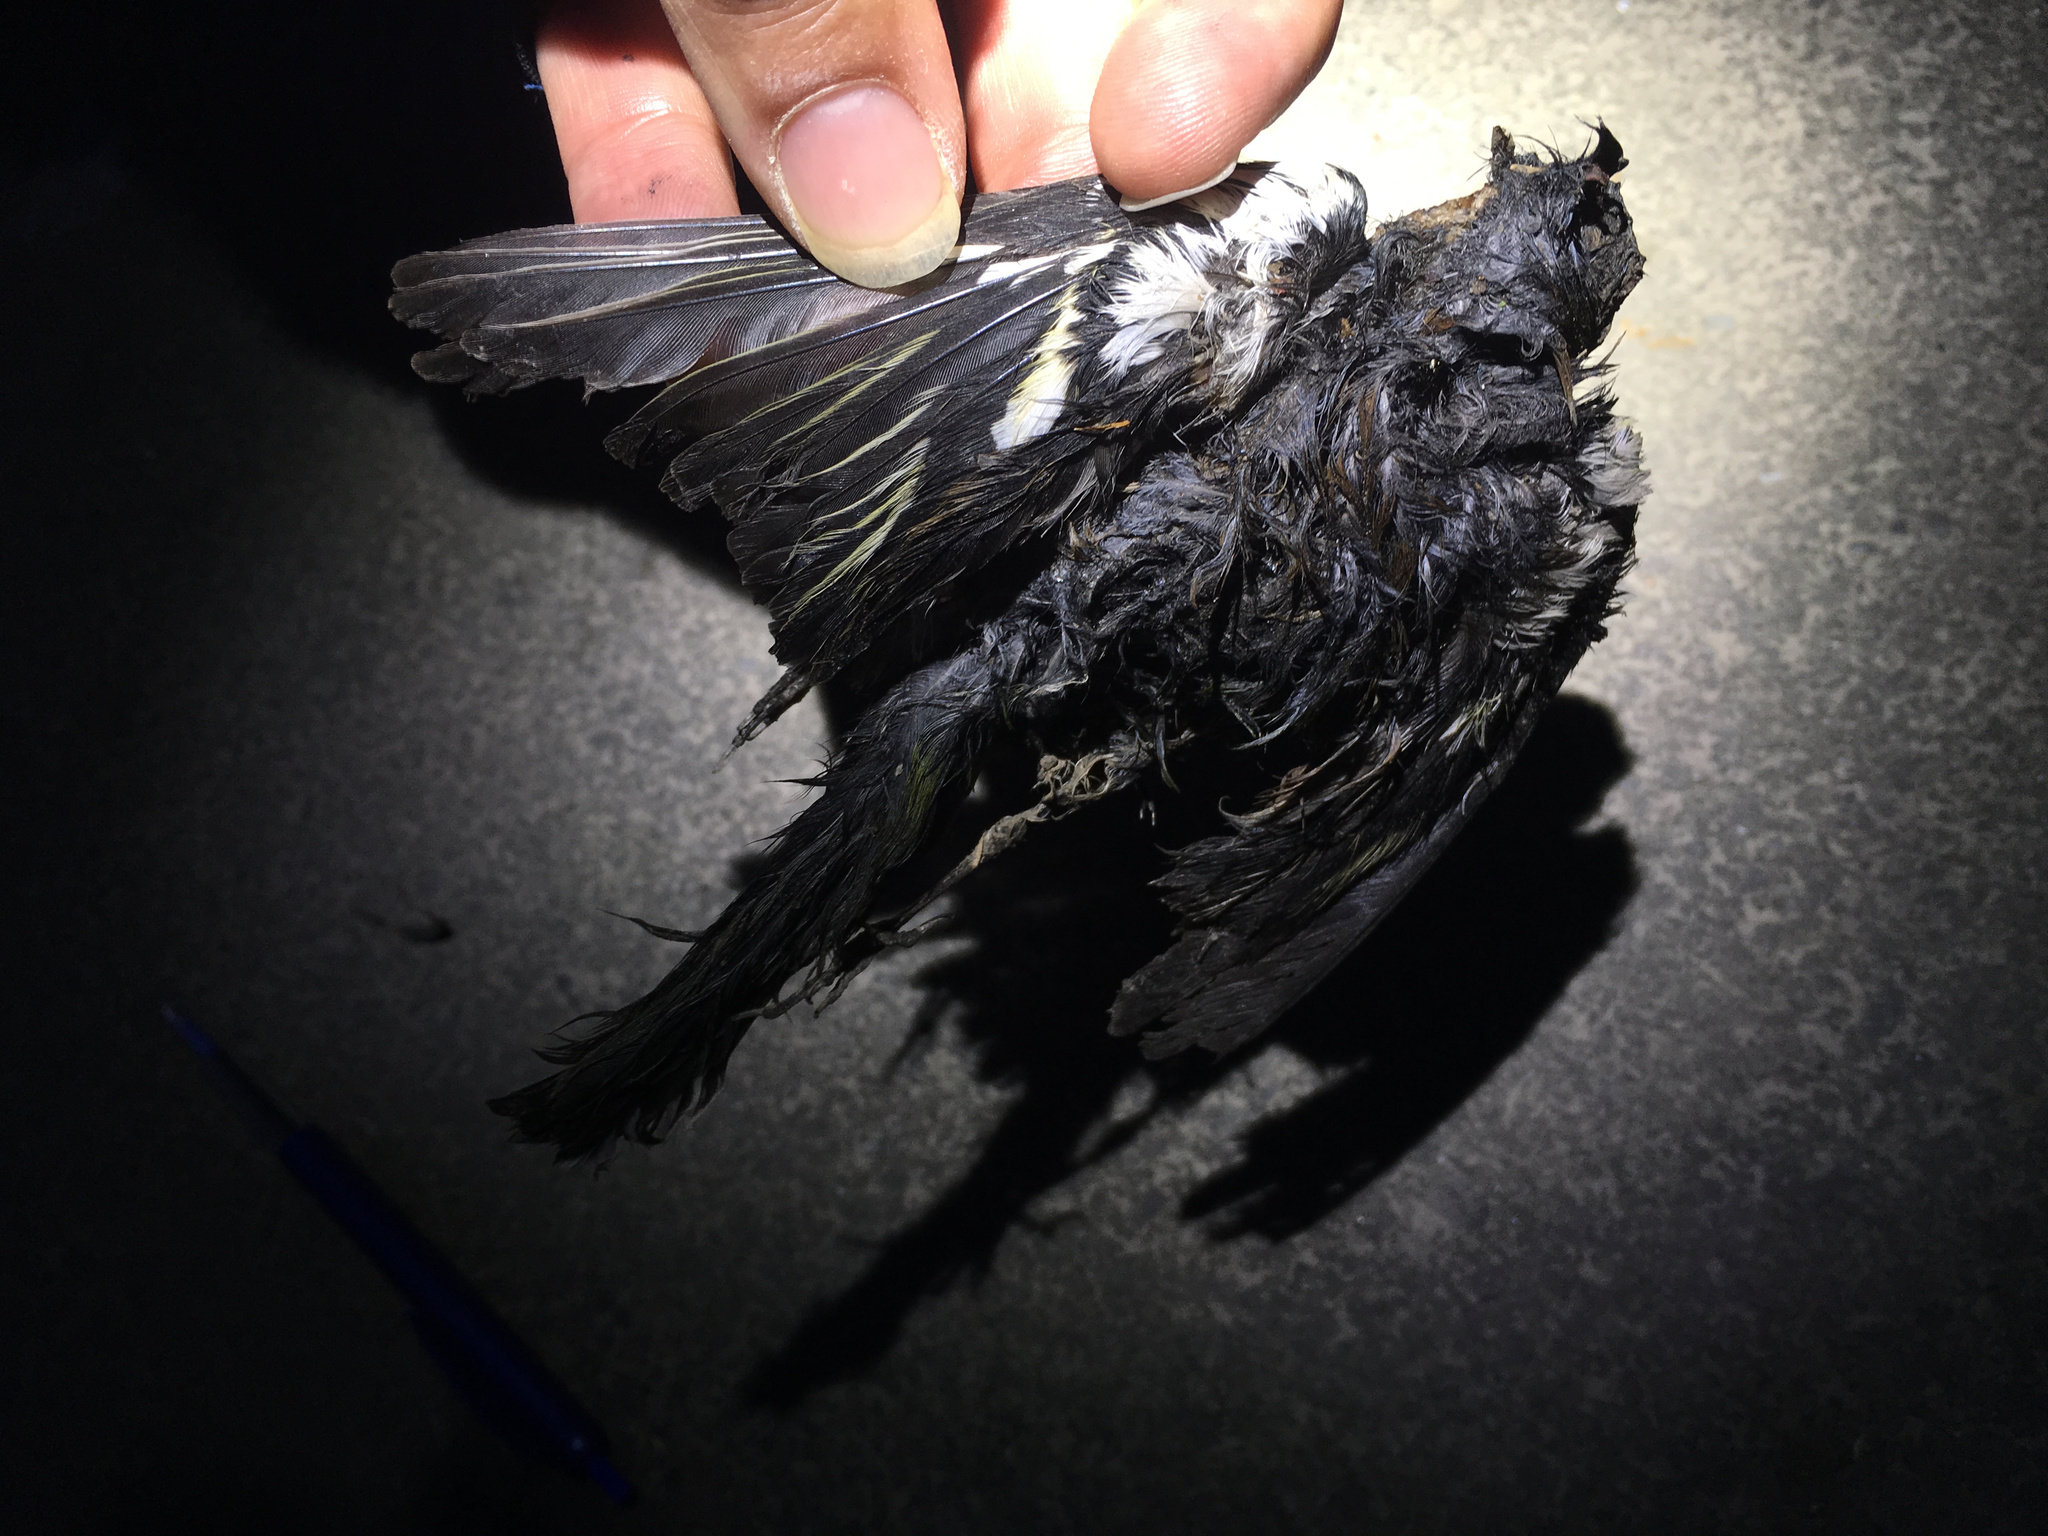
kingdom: Animalia
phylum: Chordata
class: Aves
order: Passeriformes
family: Fringillidae
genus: Fringilla
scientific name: Fringilla coelebs
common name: Common chaffinch
